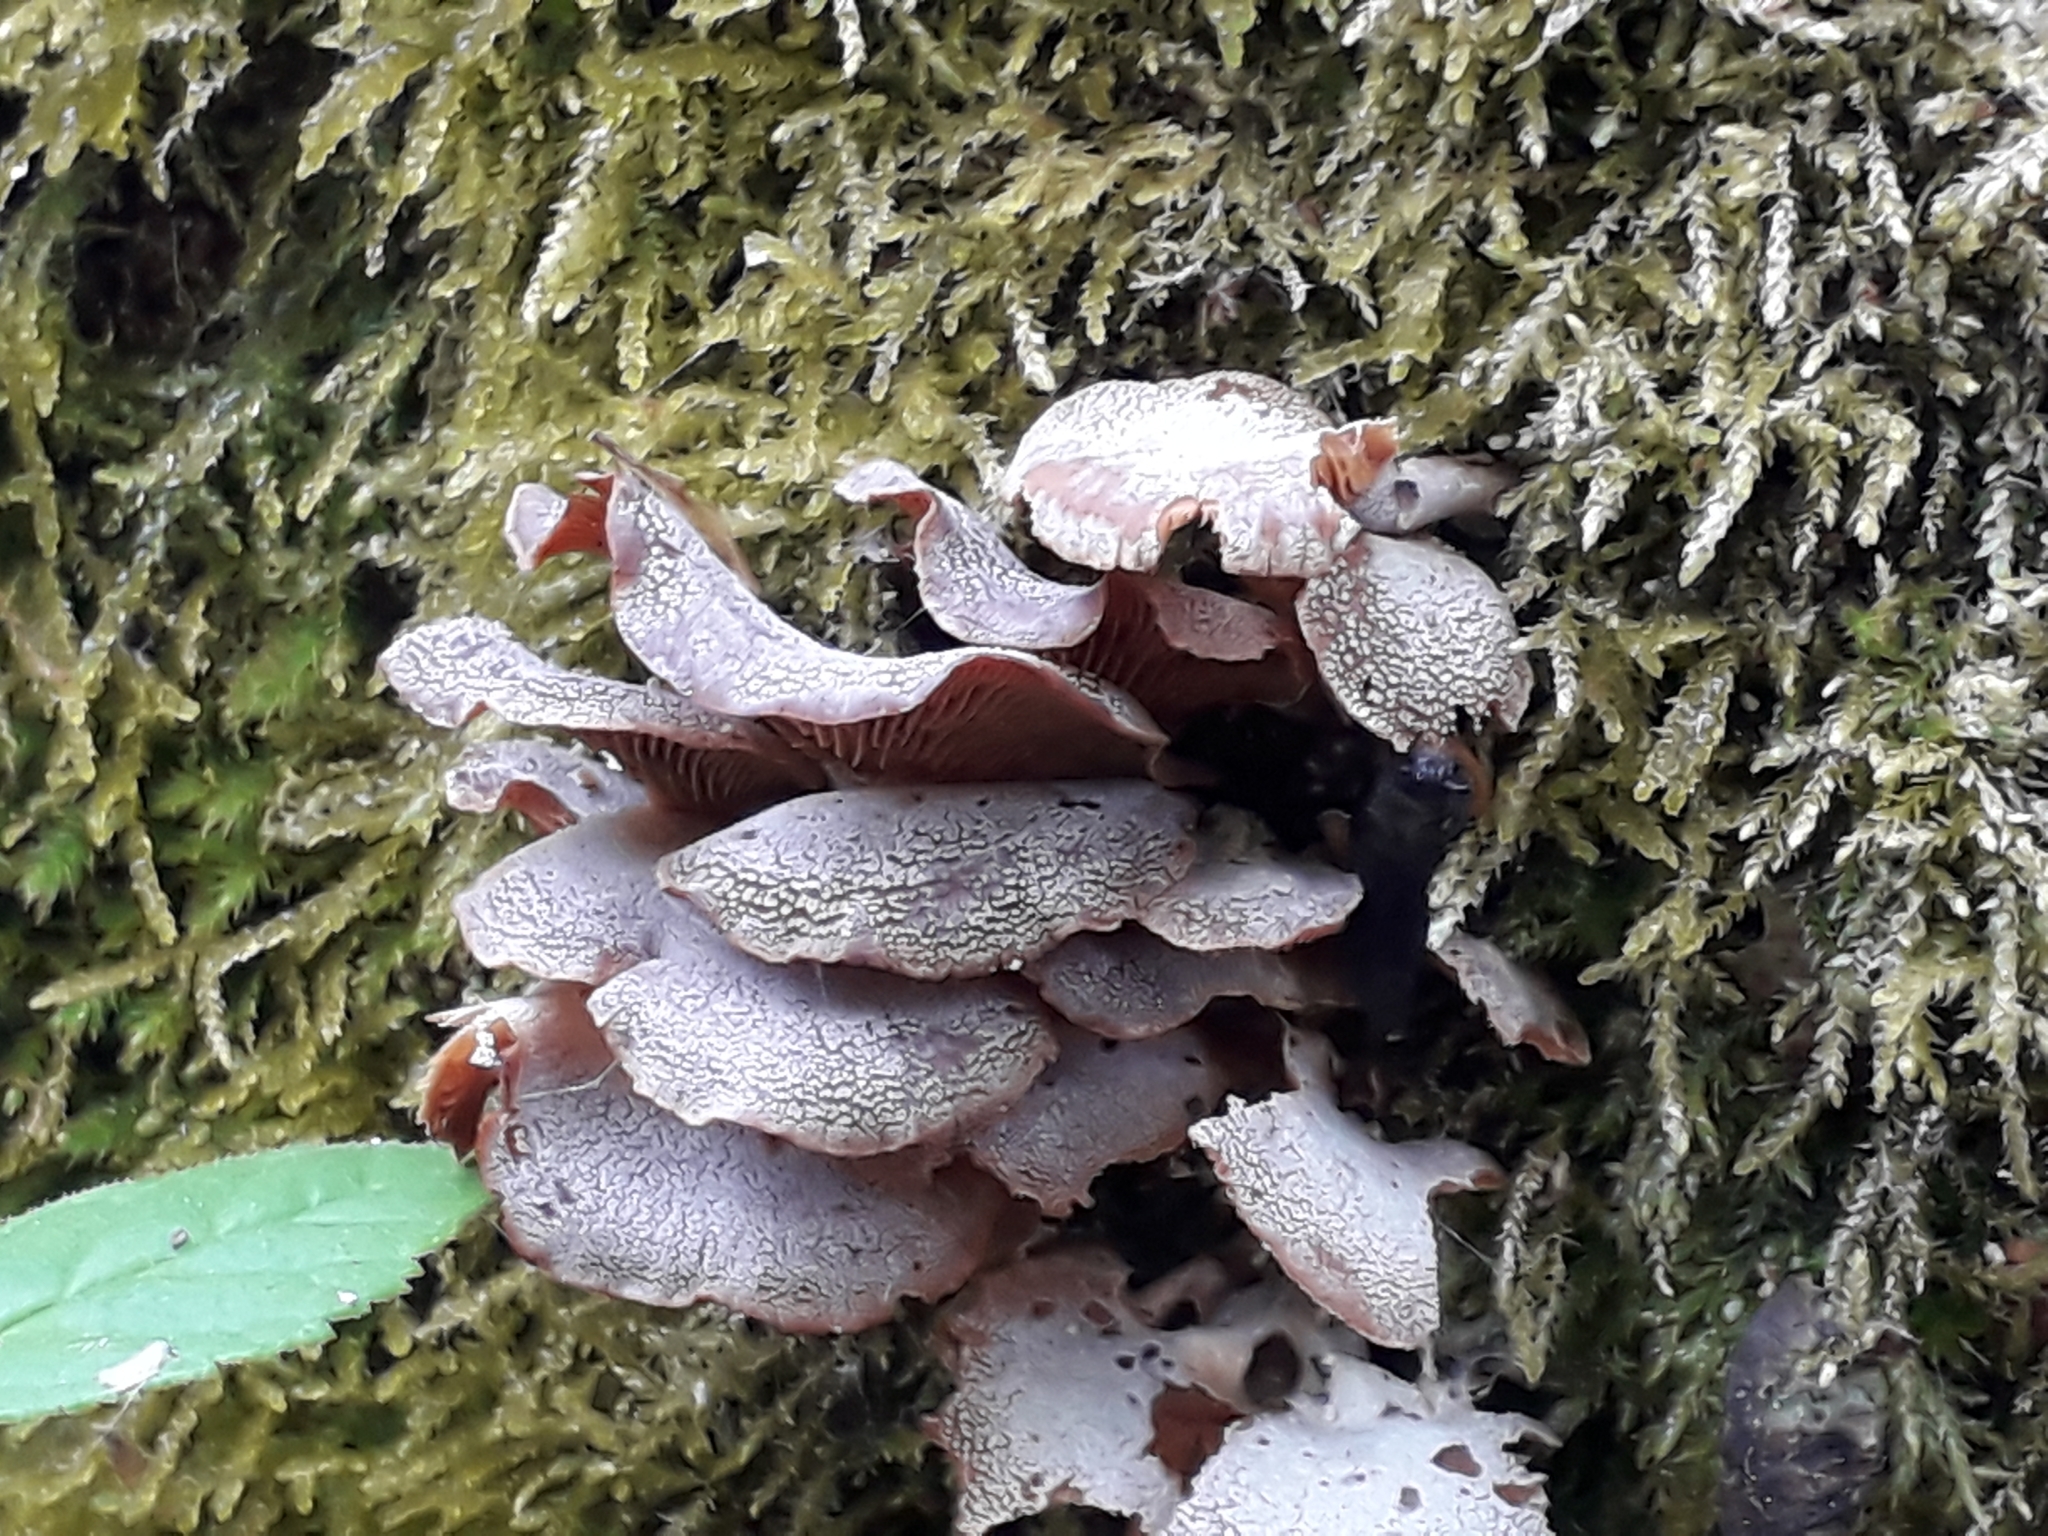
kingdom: Fungi
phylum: Basidiomycota
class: Agaricomycetes
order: Agaricales
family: Mycenaceae
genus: Panellus
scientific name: Panellus stipticus
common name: Bitter oysterling
